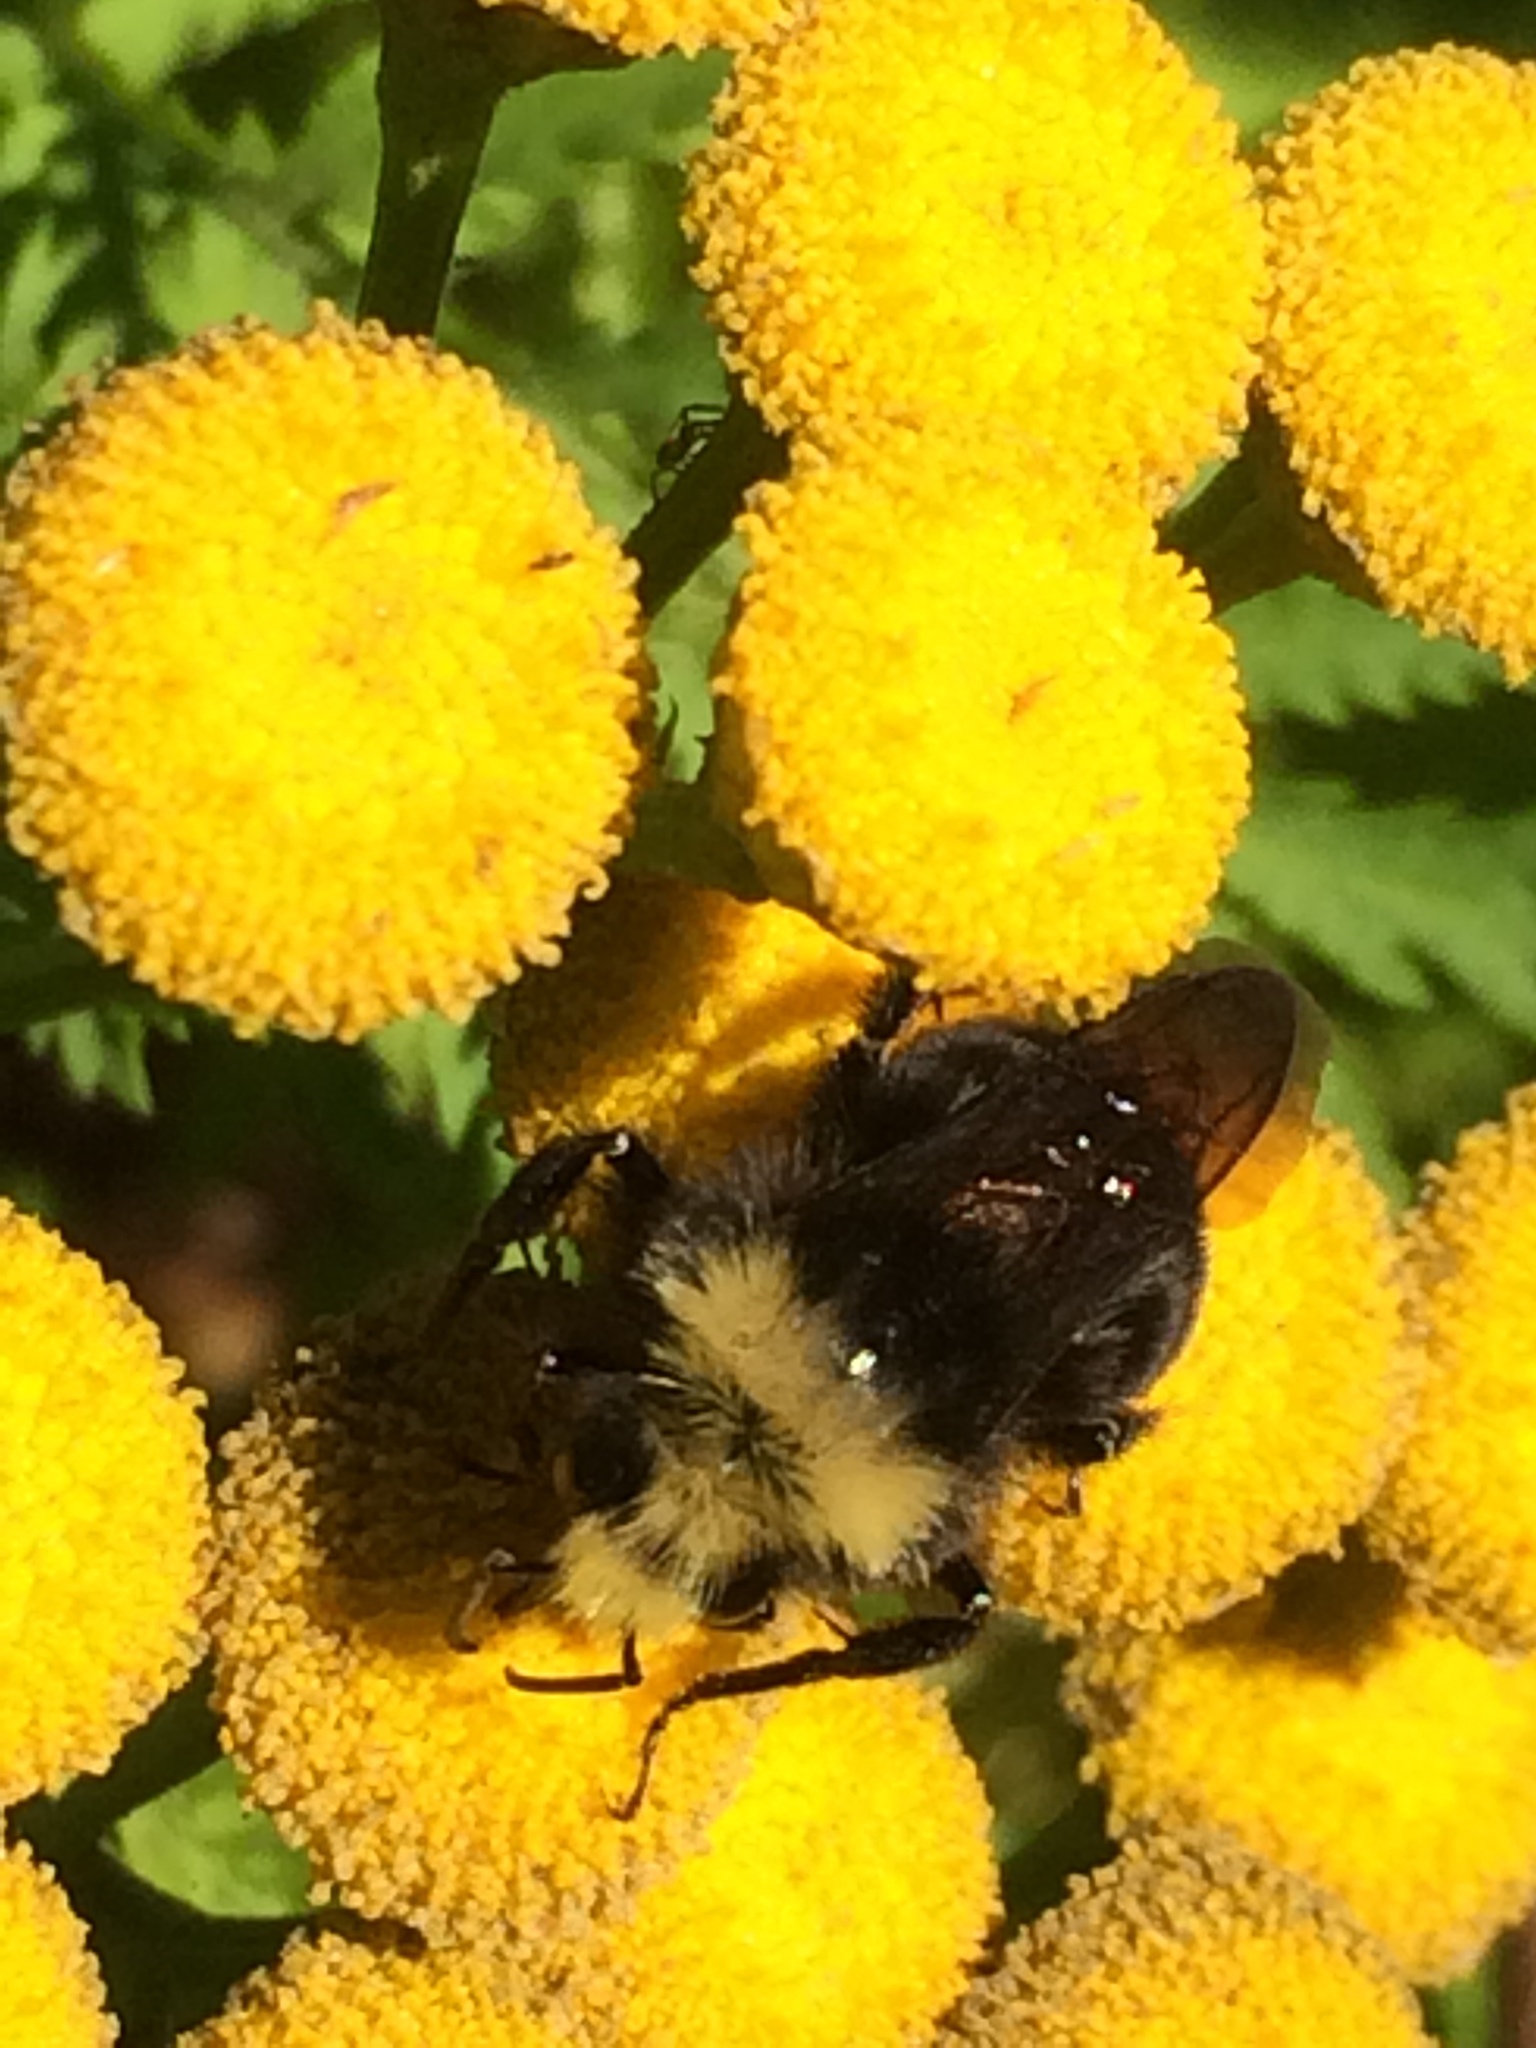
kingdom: Animalia
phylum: Arthropoda
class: Insecta
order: Hymenoptera
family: Apidae
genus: Bombus
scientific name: Bombus vosnesenskii
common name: Vosnesensky bumble bee
